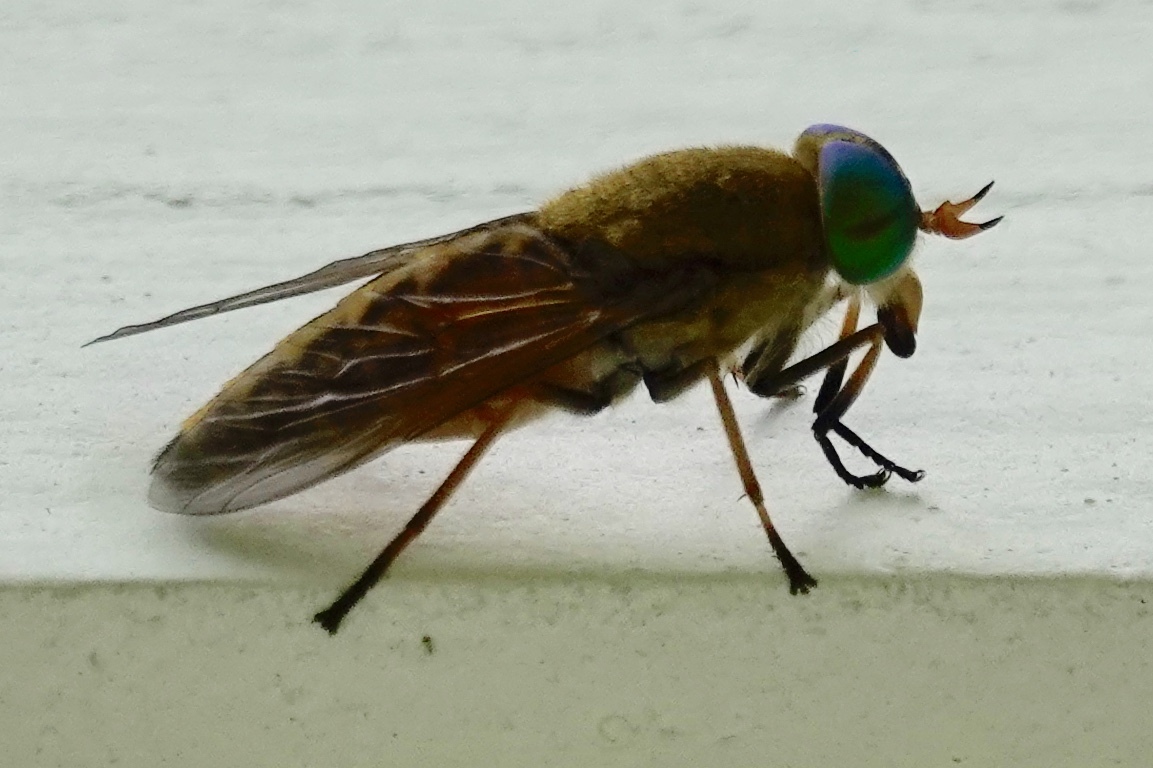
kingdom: Animalia
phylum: Arthropoda
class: Insecta
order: Diptera
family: Tabanidae
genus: Tabanus
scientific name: Tabanus fulvulus
